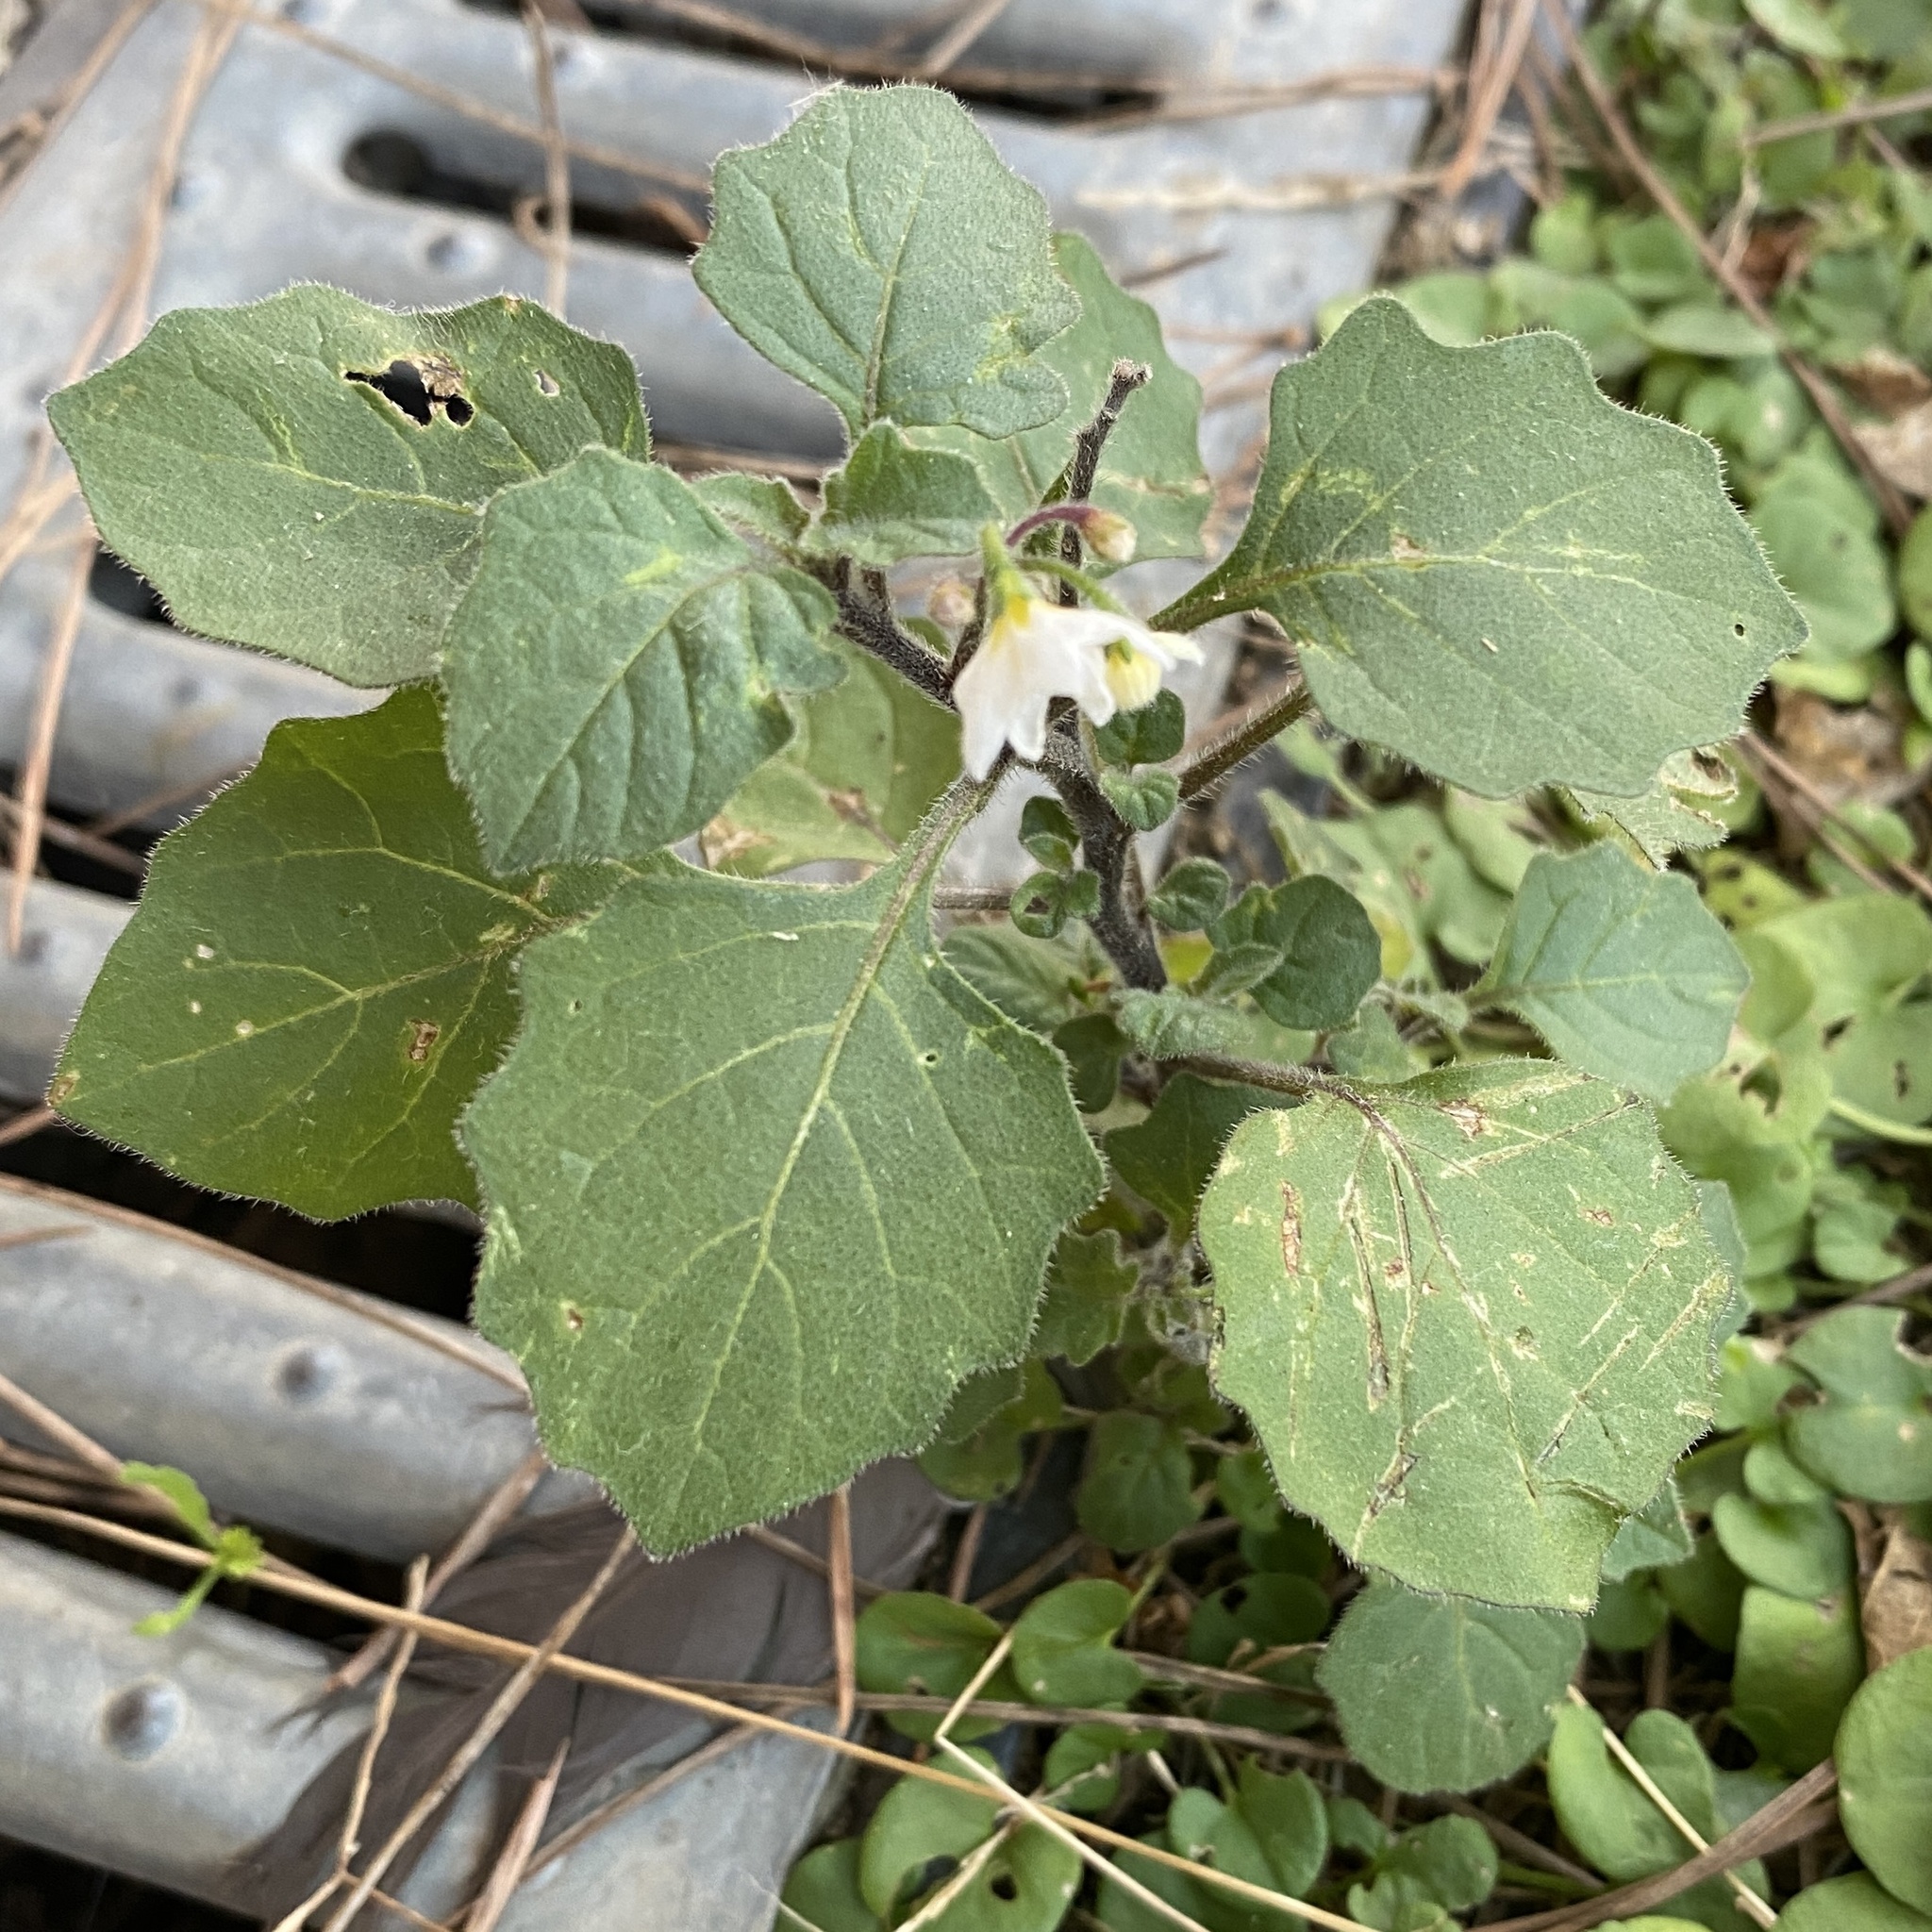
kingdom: Plantae
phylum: Tracheophyta
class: Magnoliopsida
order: Solanales
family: Solanaceae
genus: Solanum
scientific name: Solanum villosum
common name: Red nightshade
